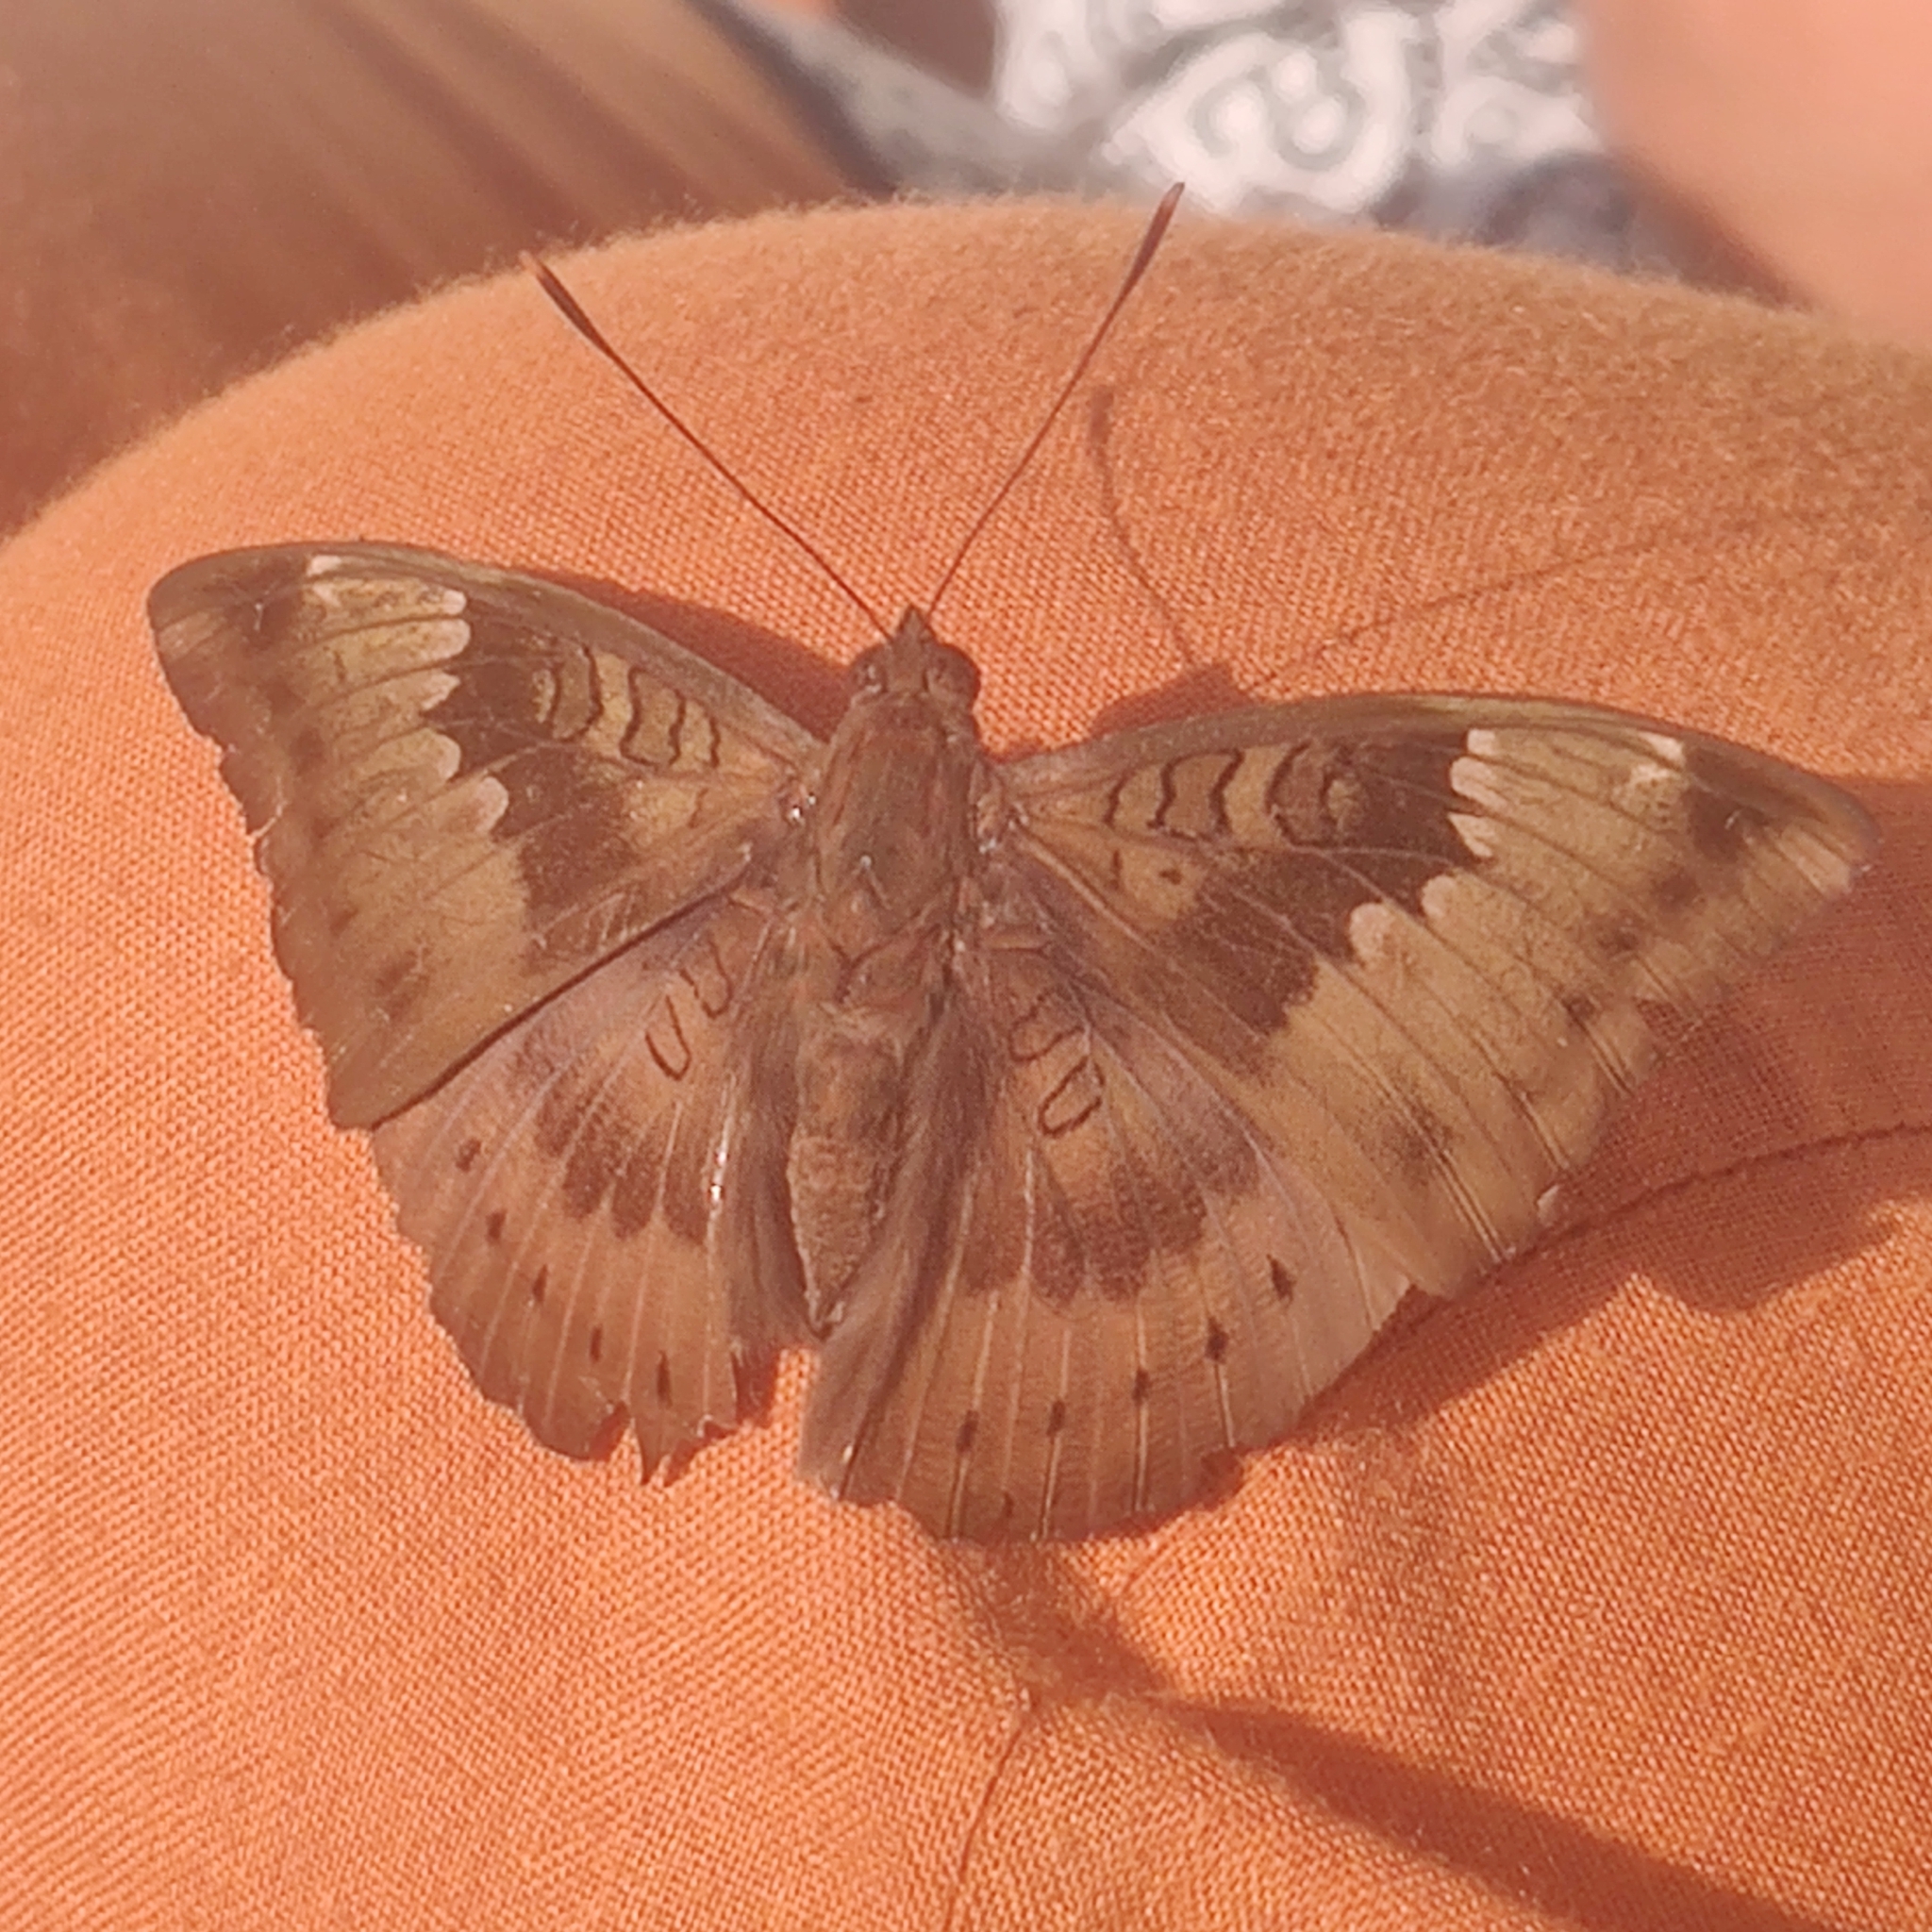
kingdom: Animalia
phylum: Arthropoda
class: Insecta
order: Lepidoptera
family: Nymphalidae
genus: Euthalia
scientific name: Euthalia aconthea
